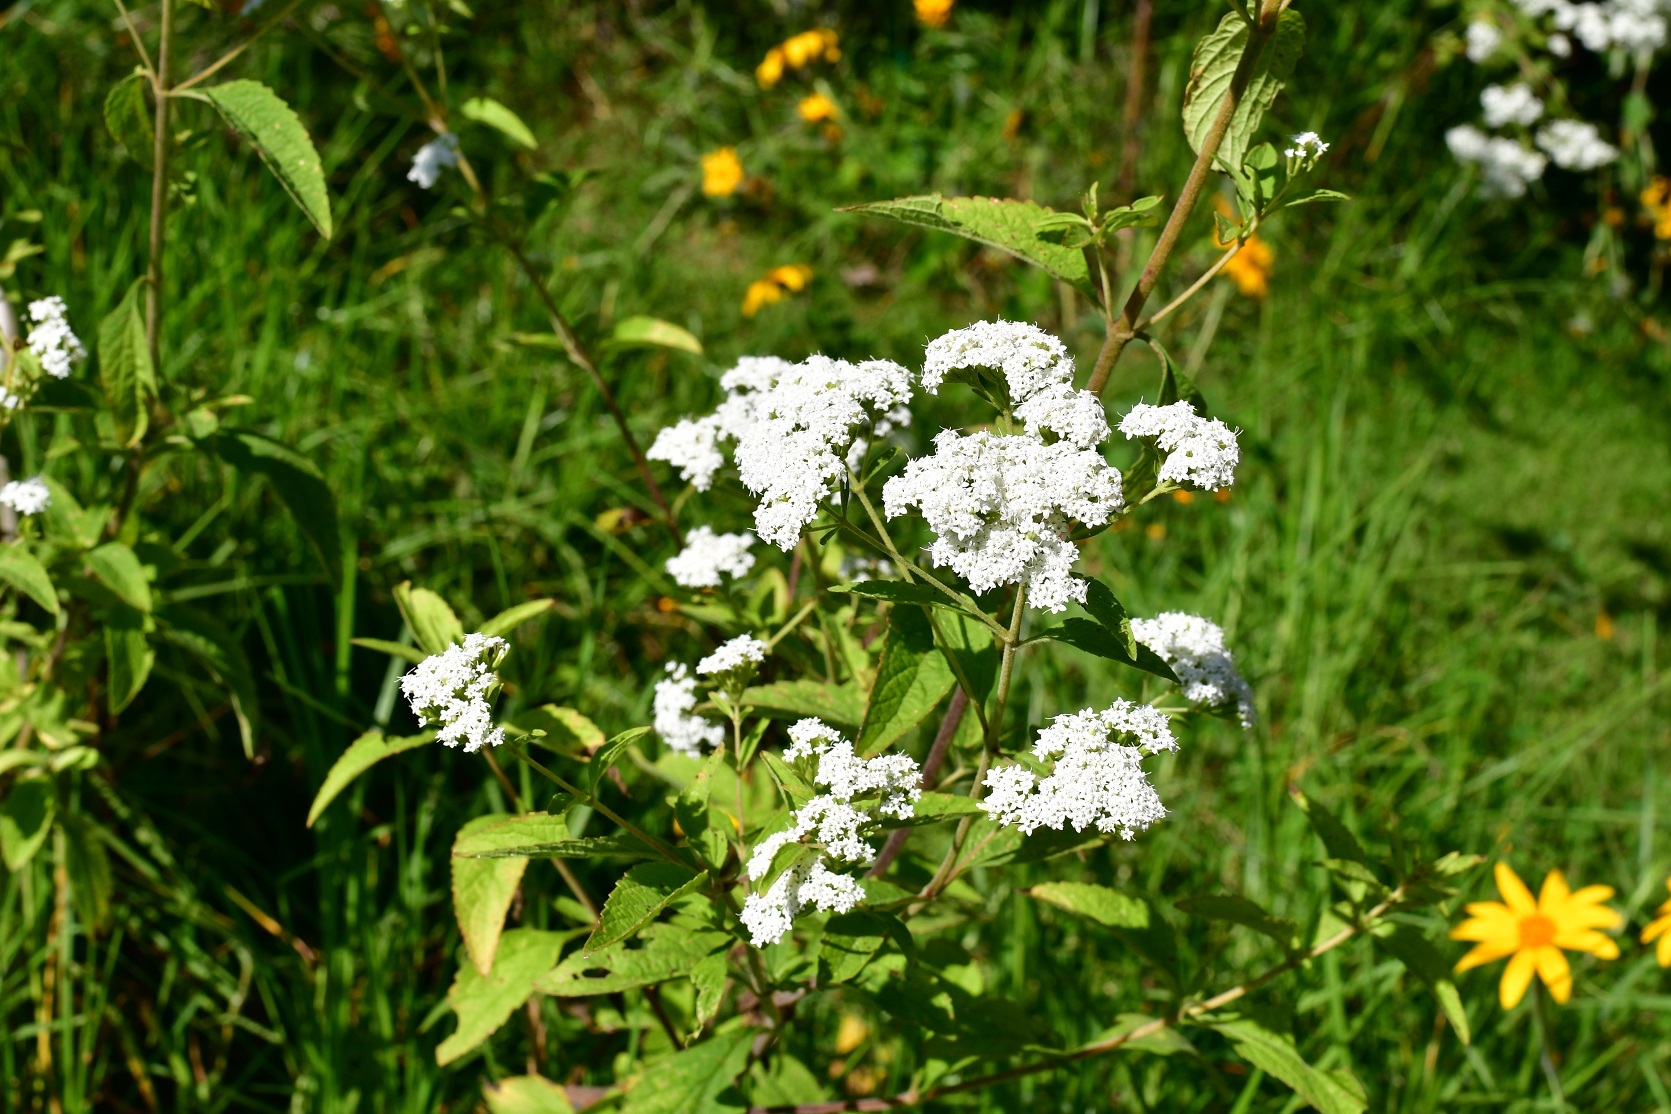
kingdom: Plantae
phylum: Tracheophyta
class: Magnoliopsida
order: Asterales
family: Asteraceae
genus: Stevia
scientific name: Stevia ovata
